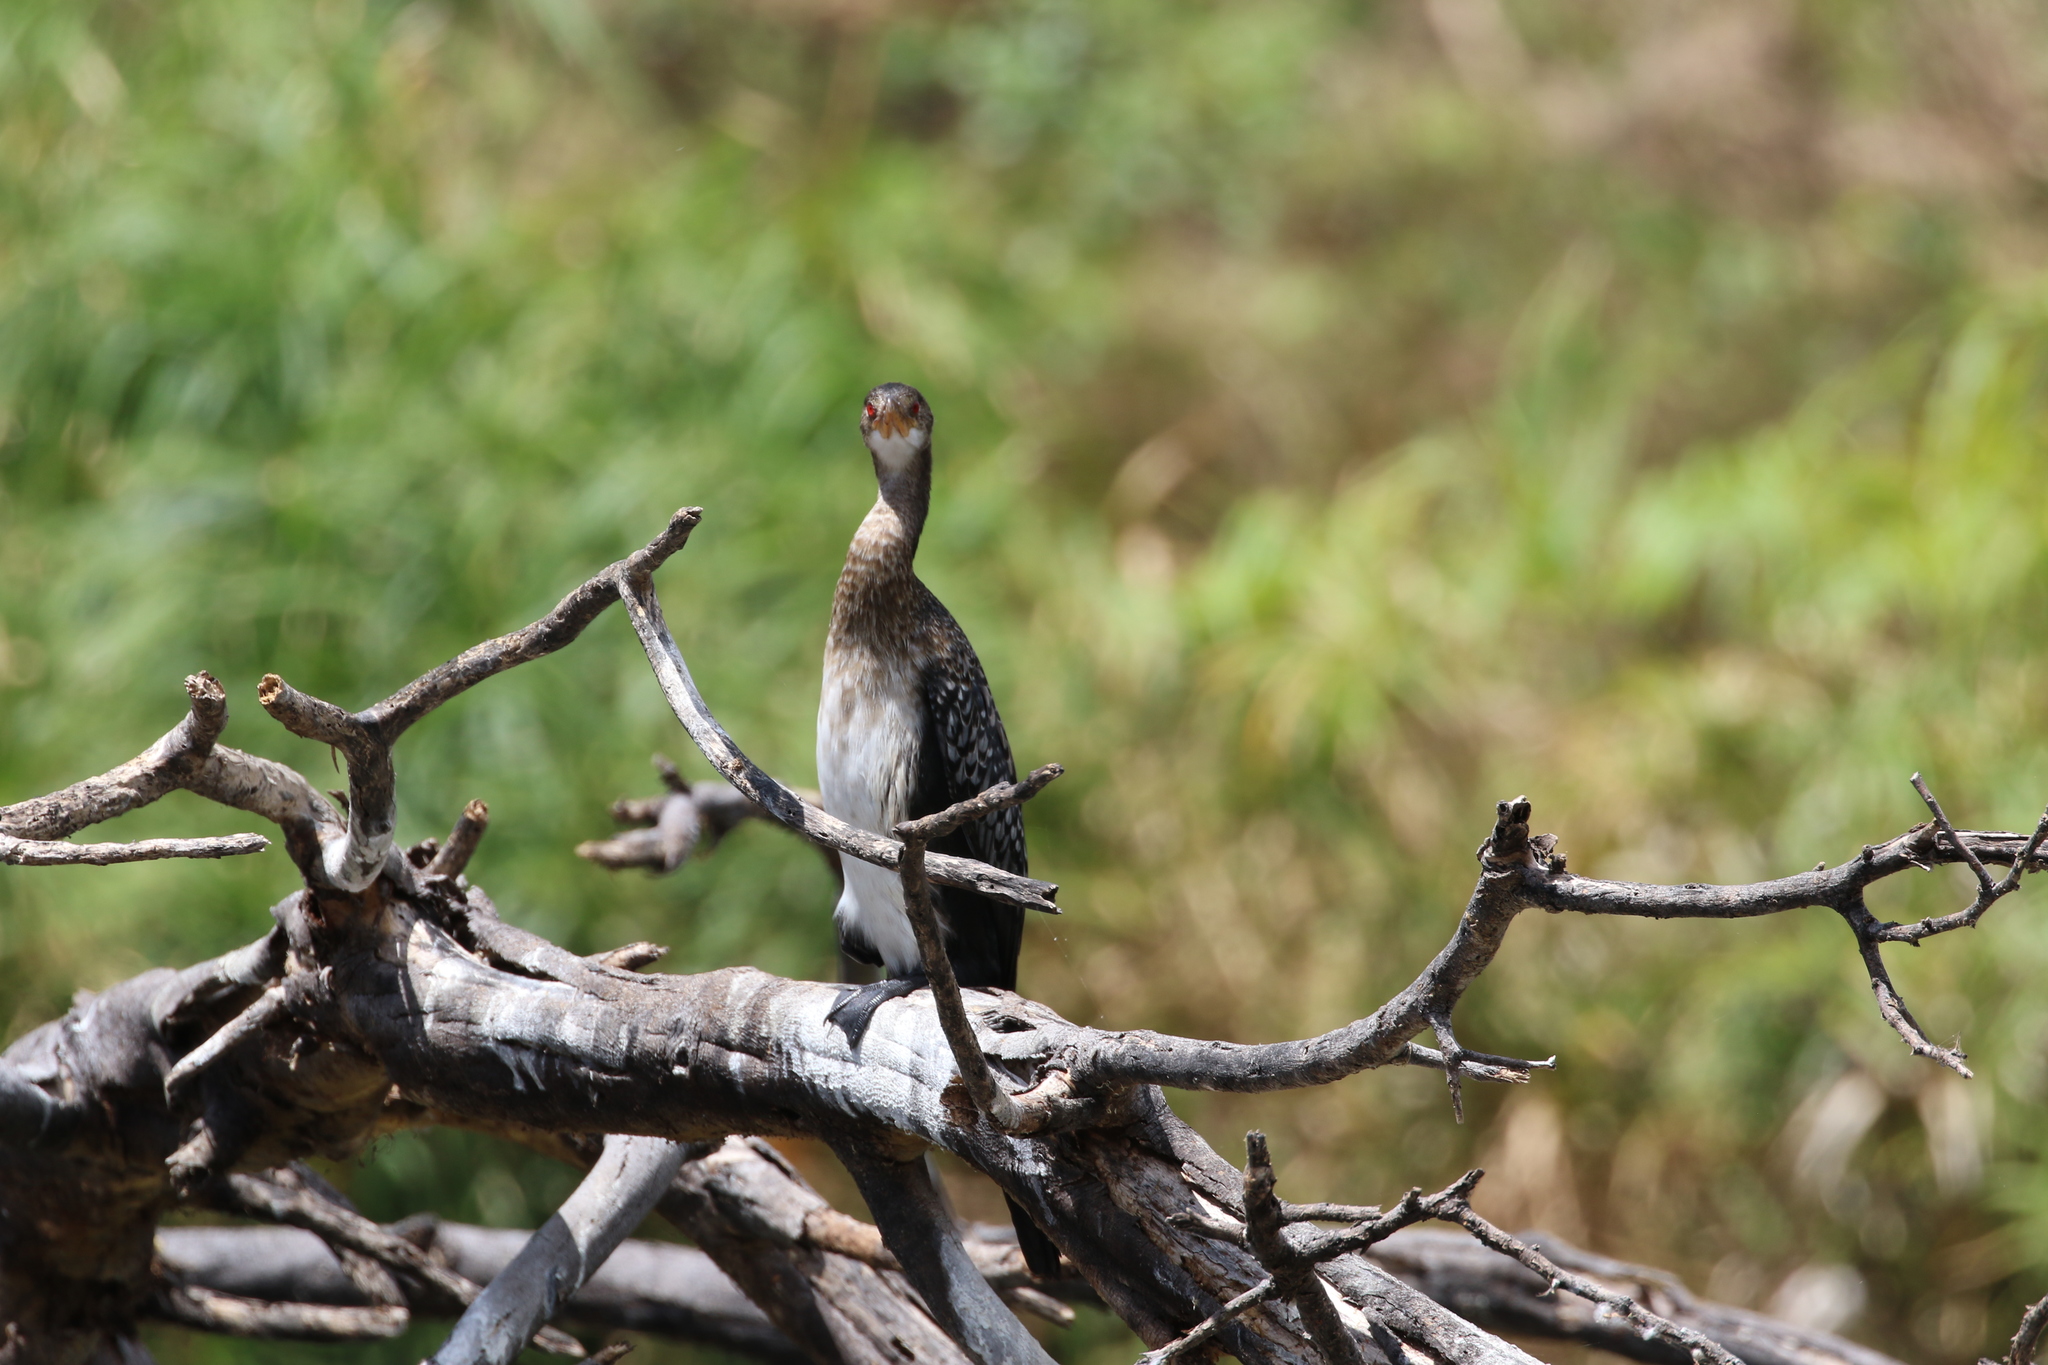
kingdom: Animalia
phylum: Chordata
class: Aves
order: Suliformes
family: Phalacrocoracidae
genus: Microcarbo
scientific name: Microcarbo africanus
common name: Long-tailed cormorant
